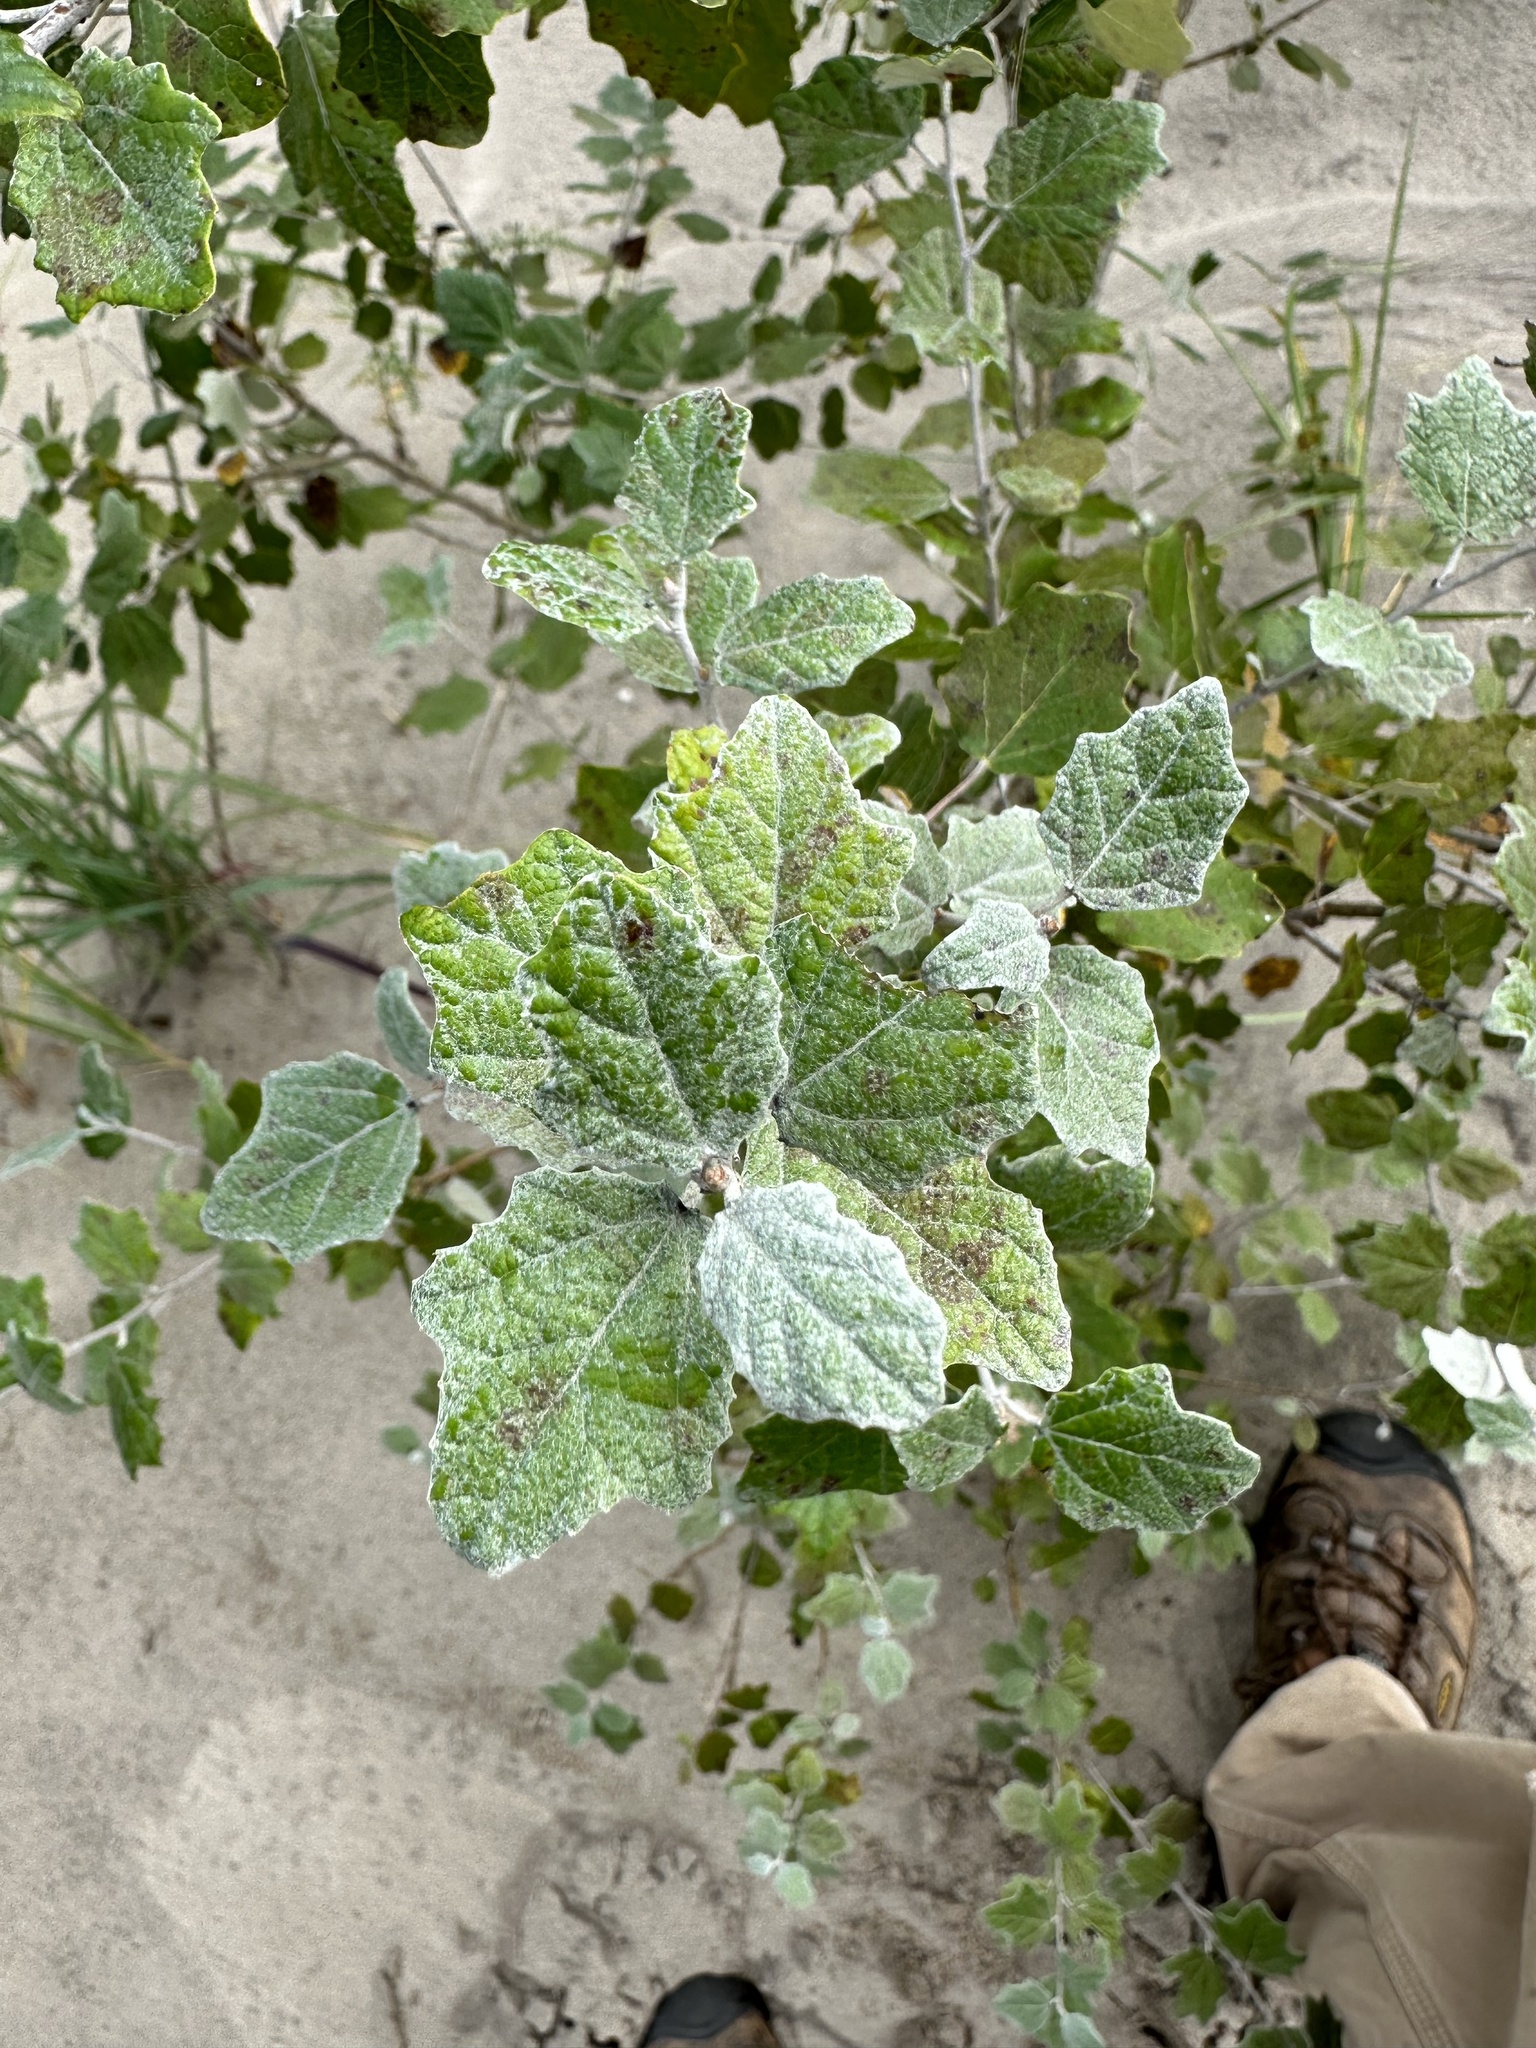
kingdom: Plantae
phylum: Tracheophyta
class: Magnoliopsida
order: Malpighiales
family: Salicaceae
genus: Populus
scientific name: Populus alba
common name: White poplar
